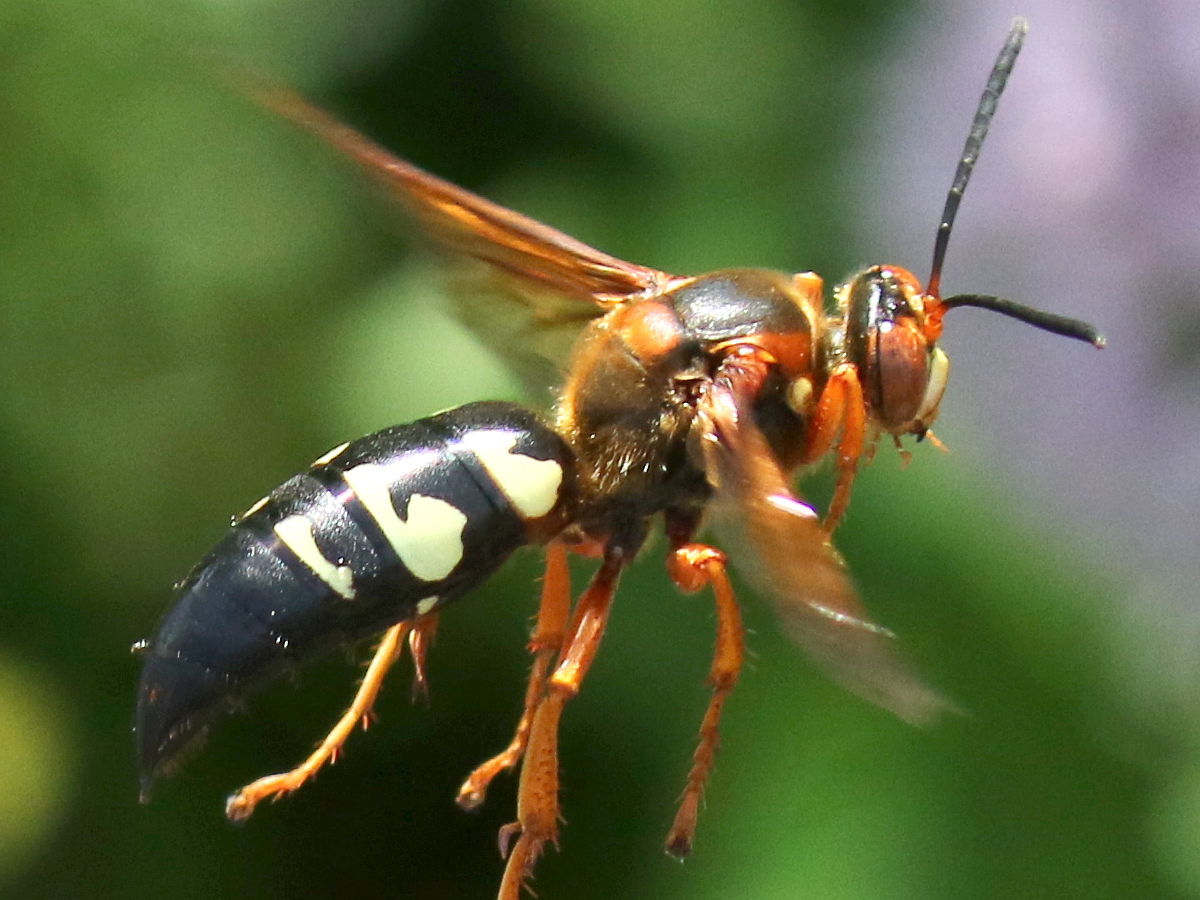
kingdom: Animalia
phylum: Arthropoda
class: Insecta
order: Hymenoptera
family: Crabronidae
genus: Sphecius
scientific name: Sphecius speciosus
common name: Cicada killer
